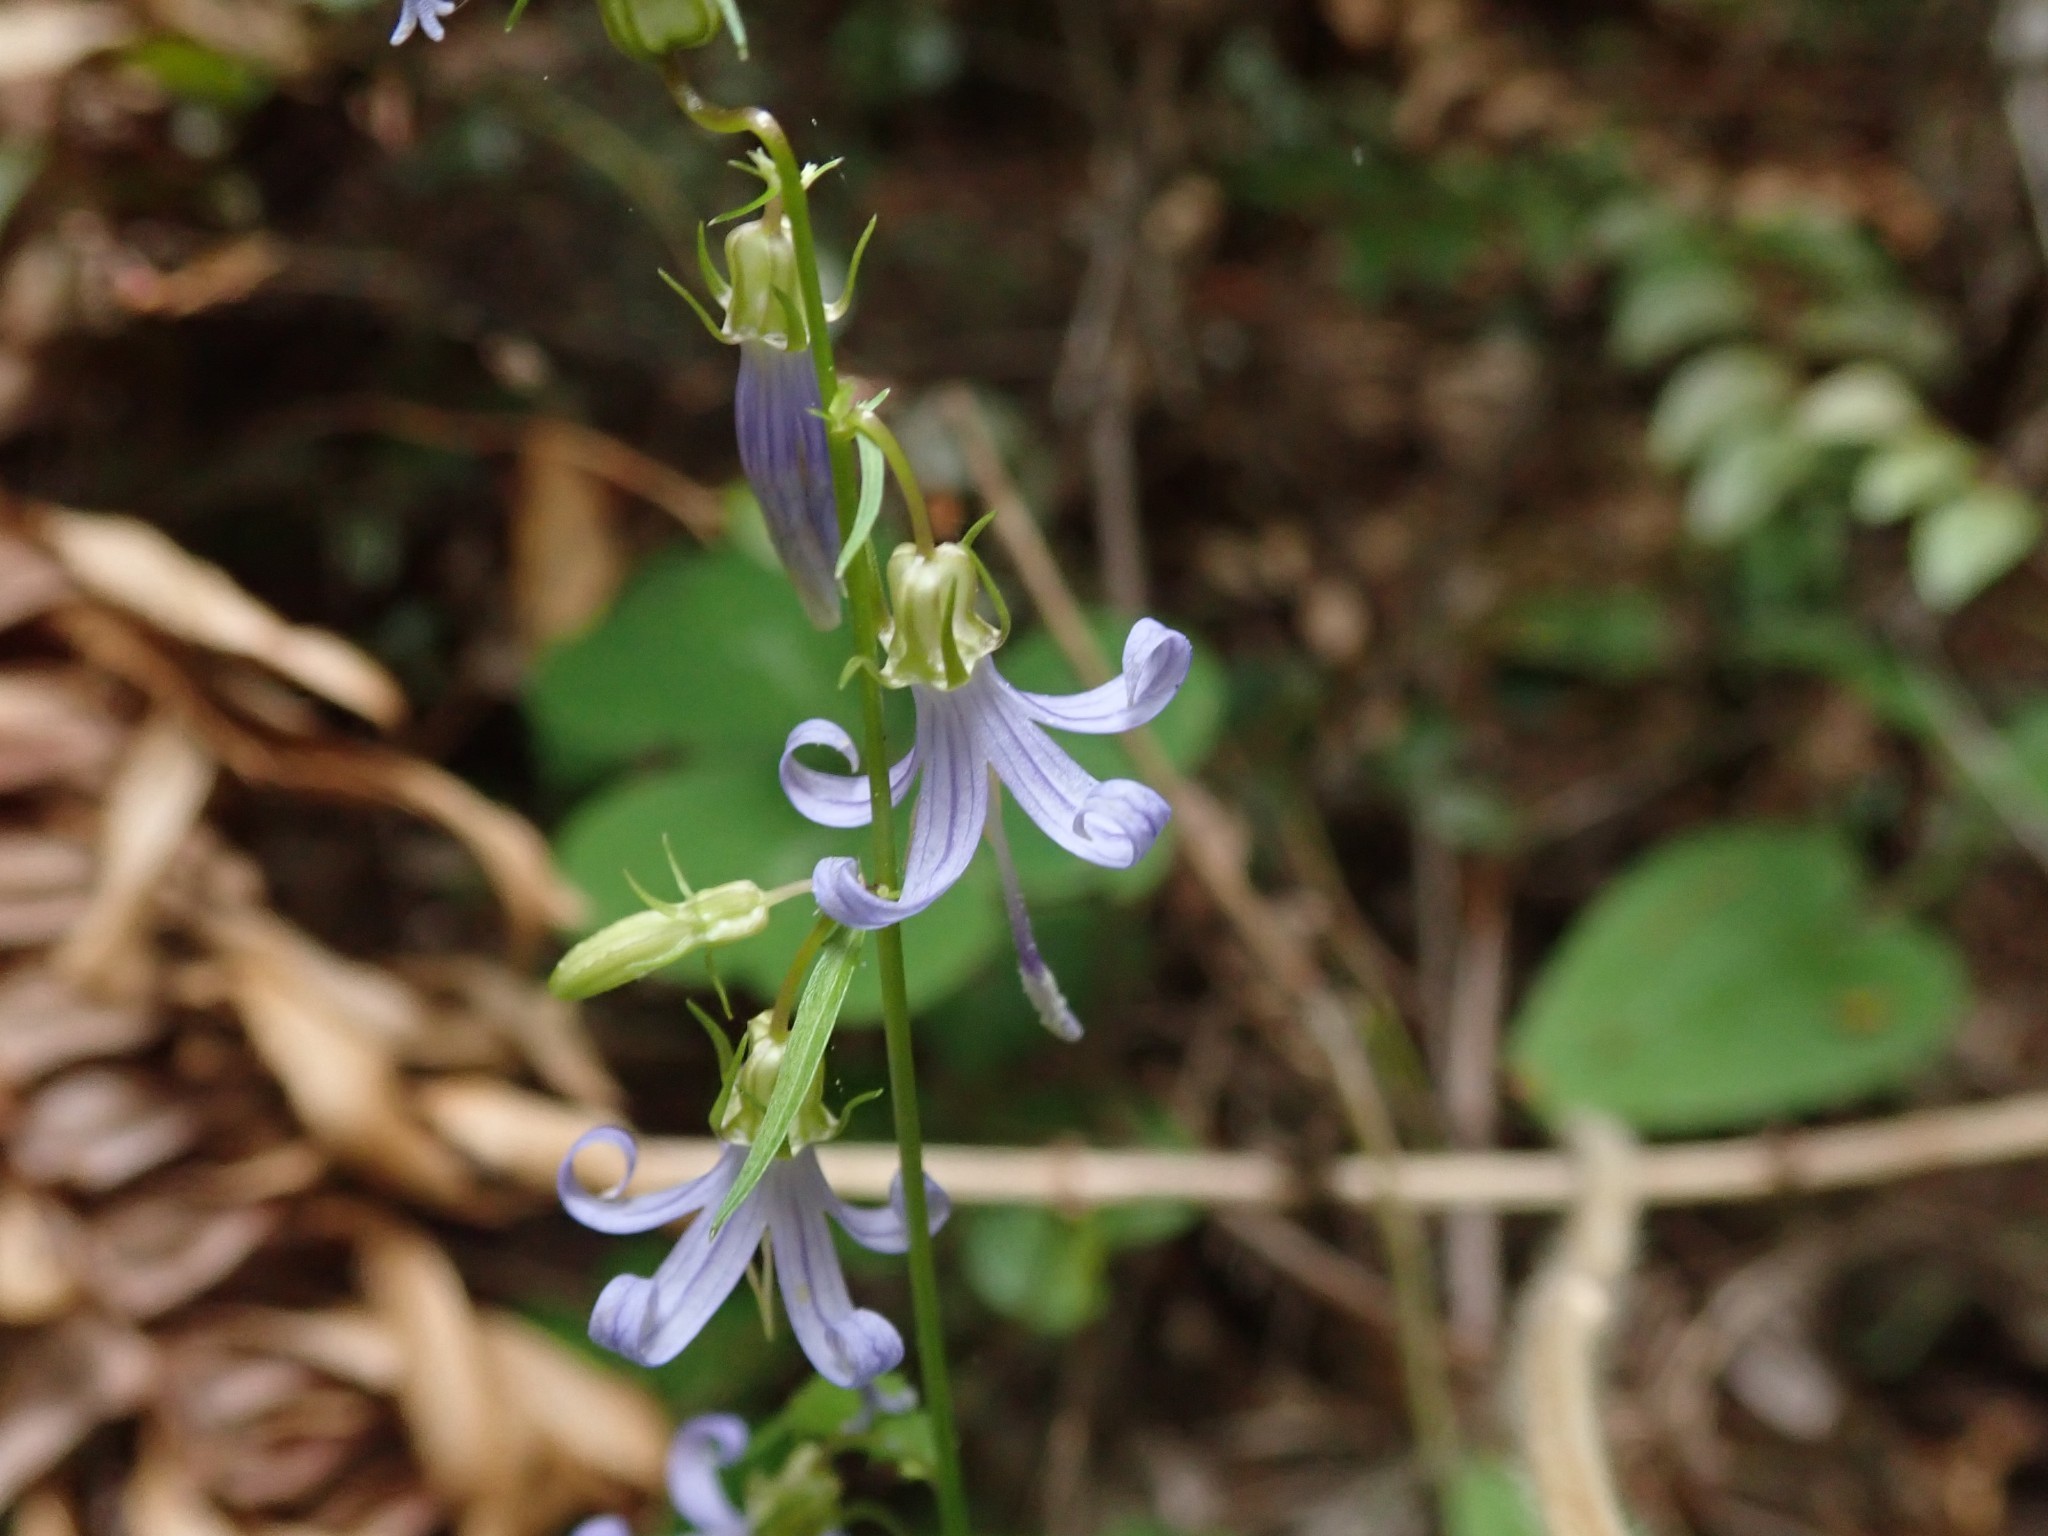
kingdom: Plantae
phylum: Tracheophyta
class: Magnoliopsida
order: Asterales
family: Campanulaceae
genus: Smithiastrum
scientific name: Smithiastrum prenanthoides
